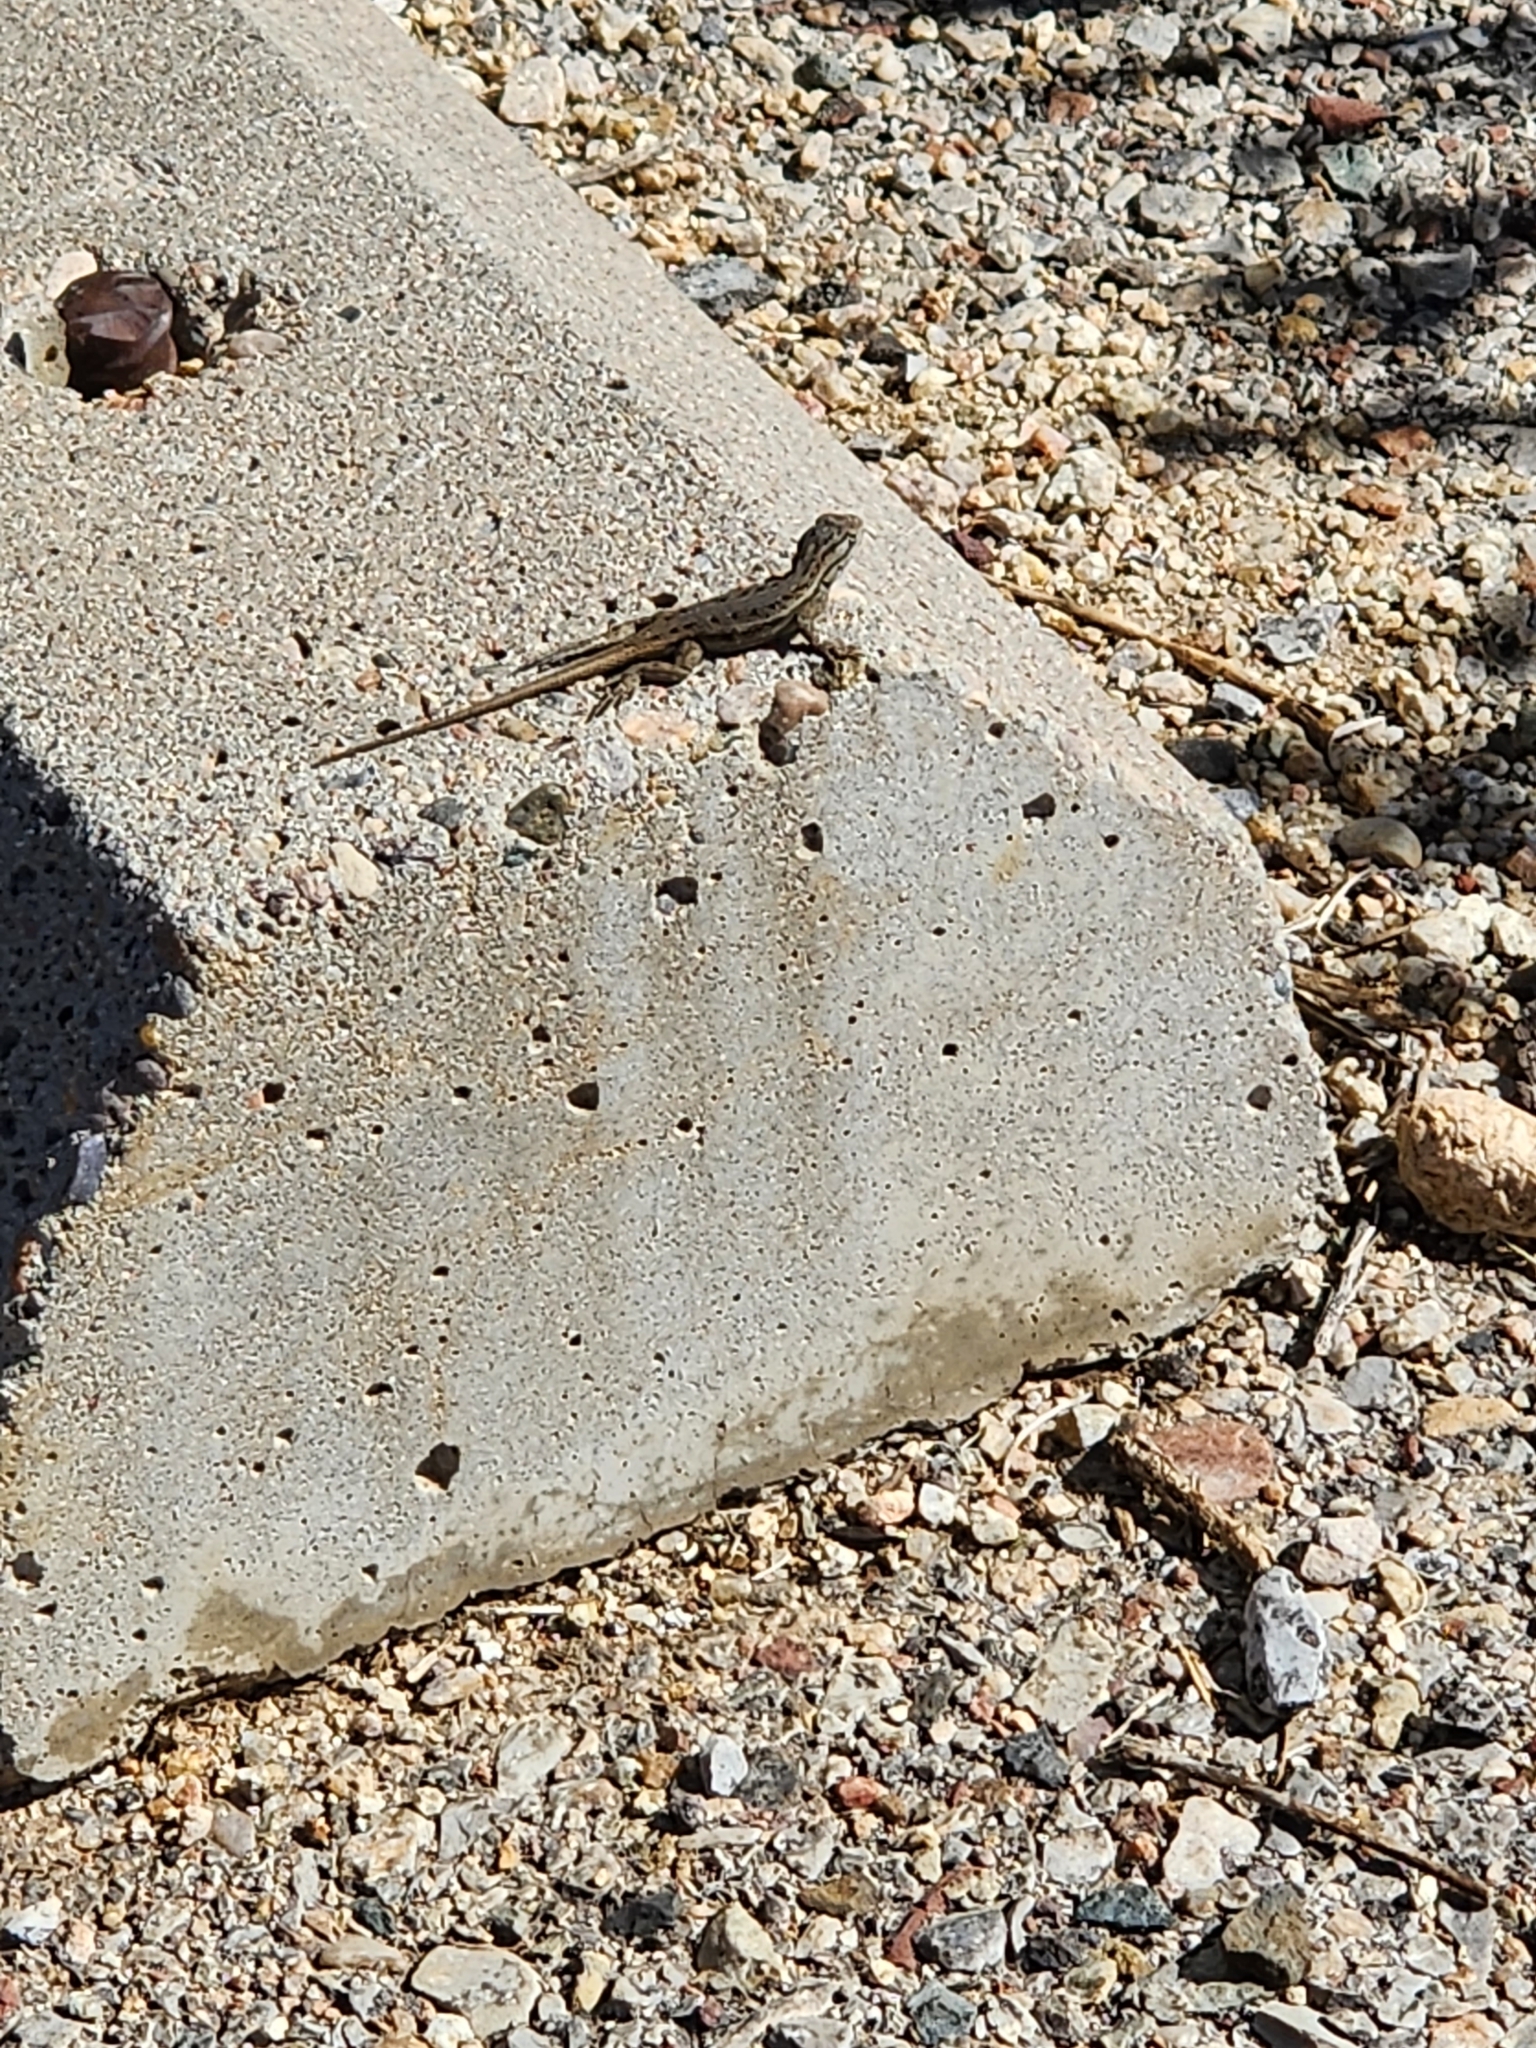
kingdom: Animalia
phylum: Chordata
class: Squamata
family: Phrynosomatidae
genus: Sceloporus
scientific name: Sceloporus cowlesi
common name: White sands prairie lizard
